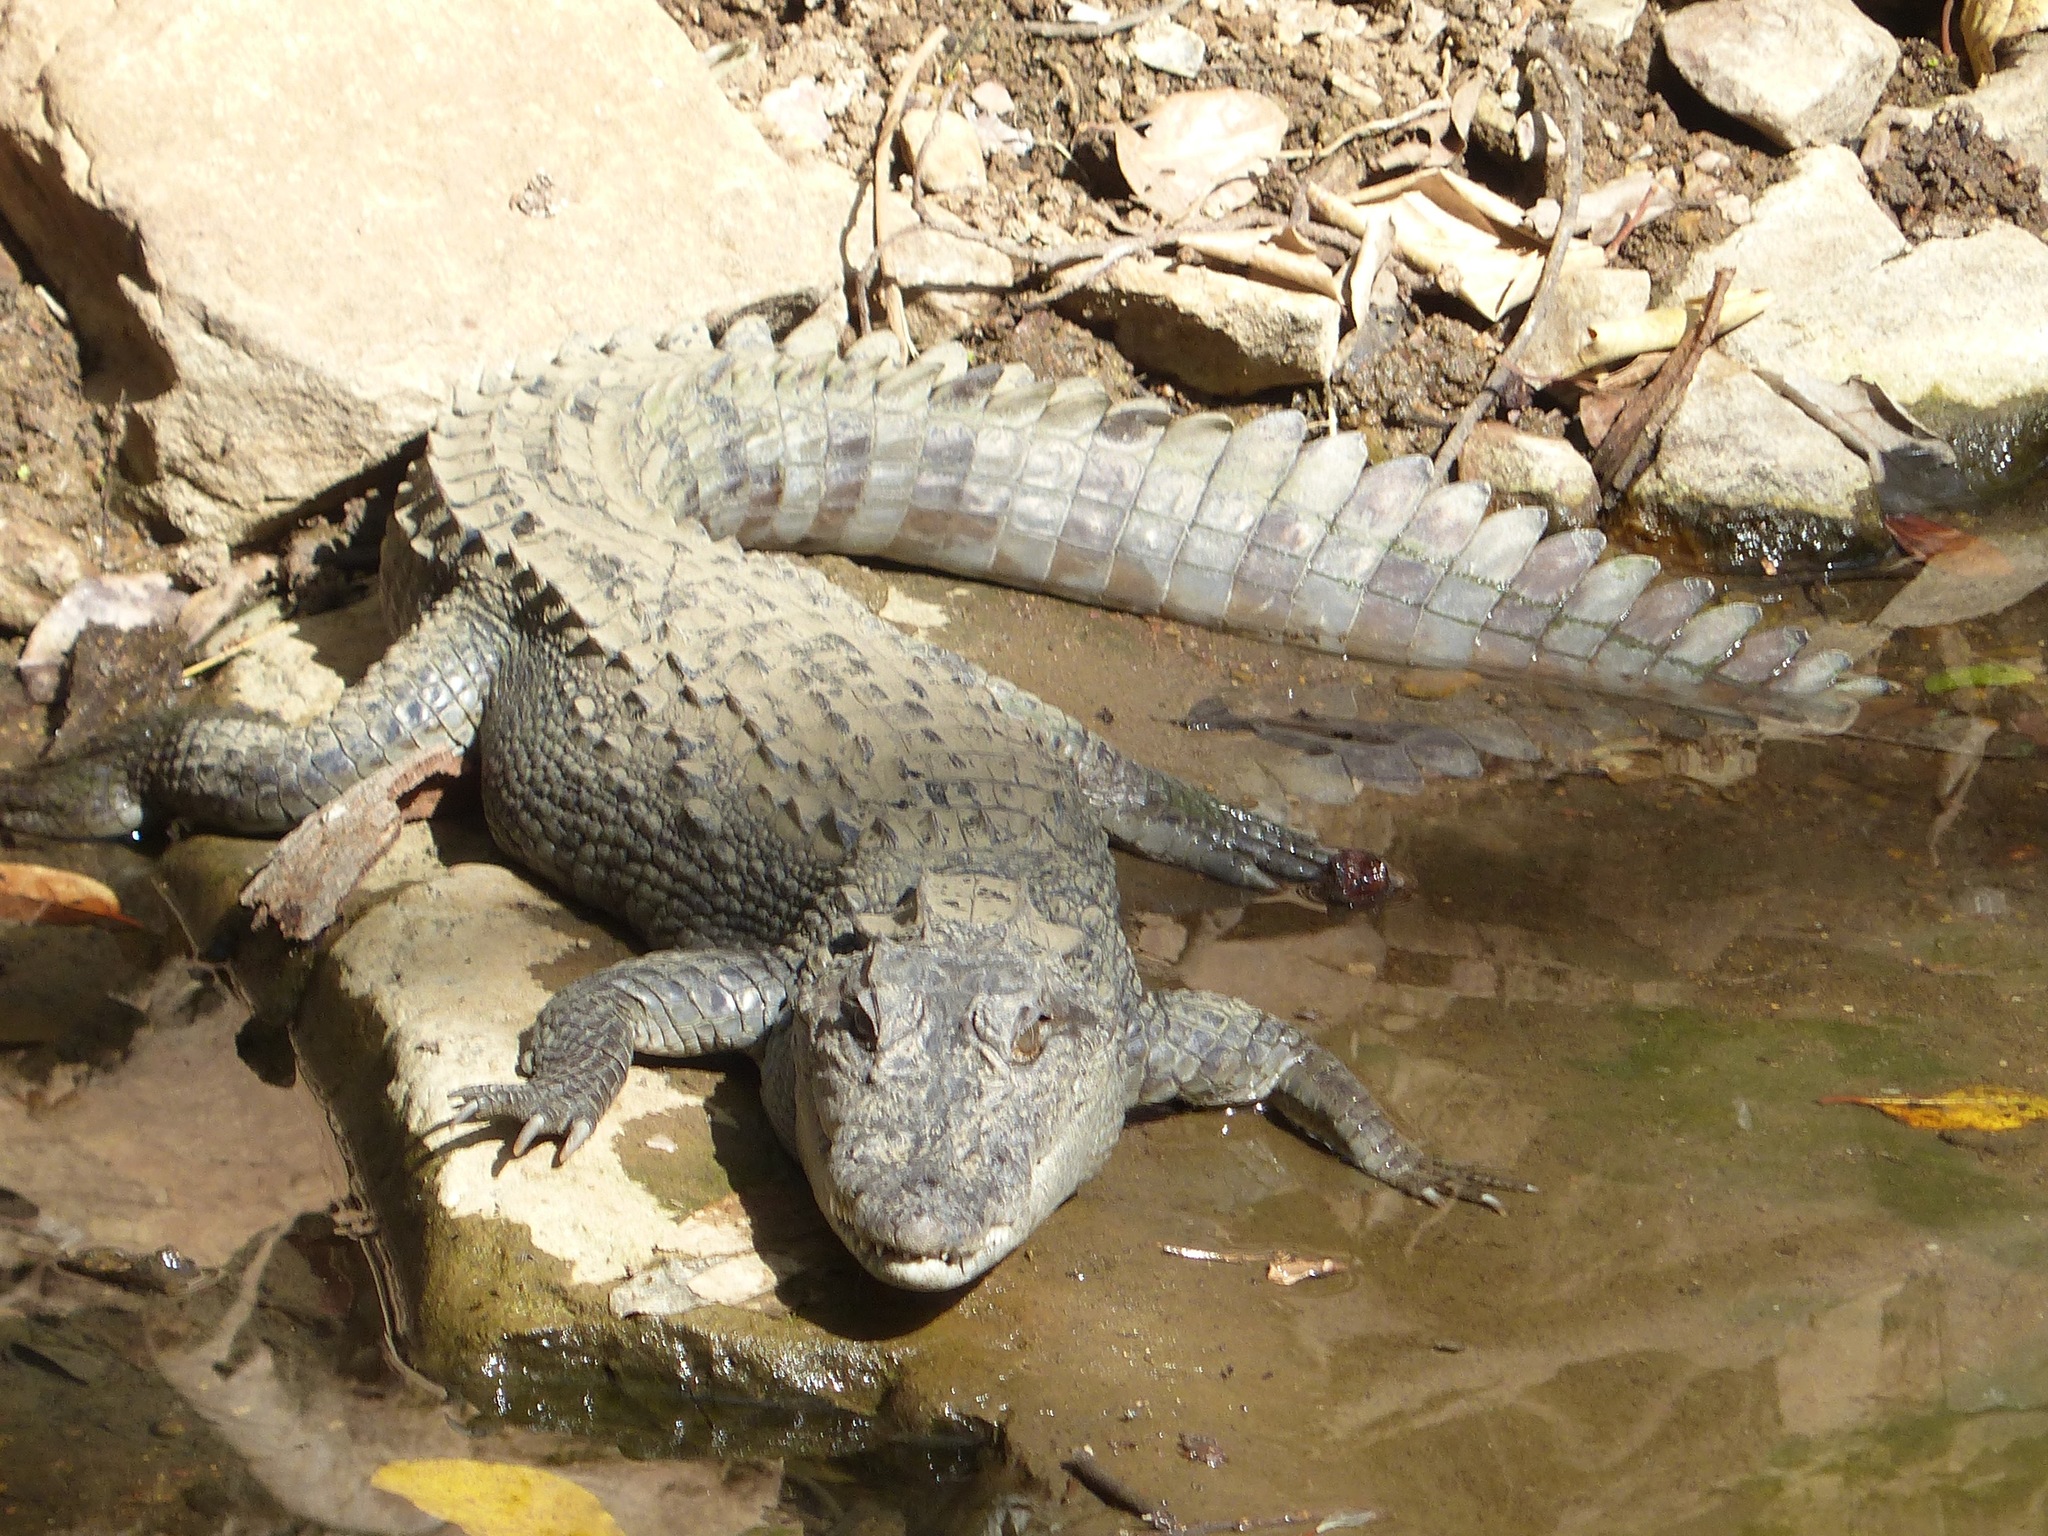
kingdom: Animalia
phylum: Chordata
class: Crocodylia
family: Crocodylidae
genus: Crocodylus
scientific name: Crocodylus palustris
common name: Mugger crocodile
